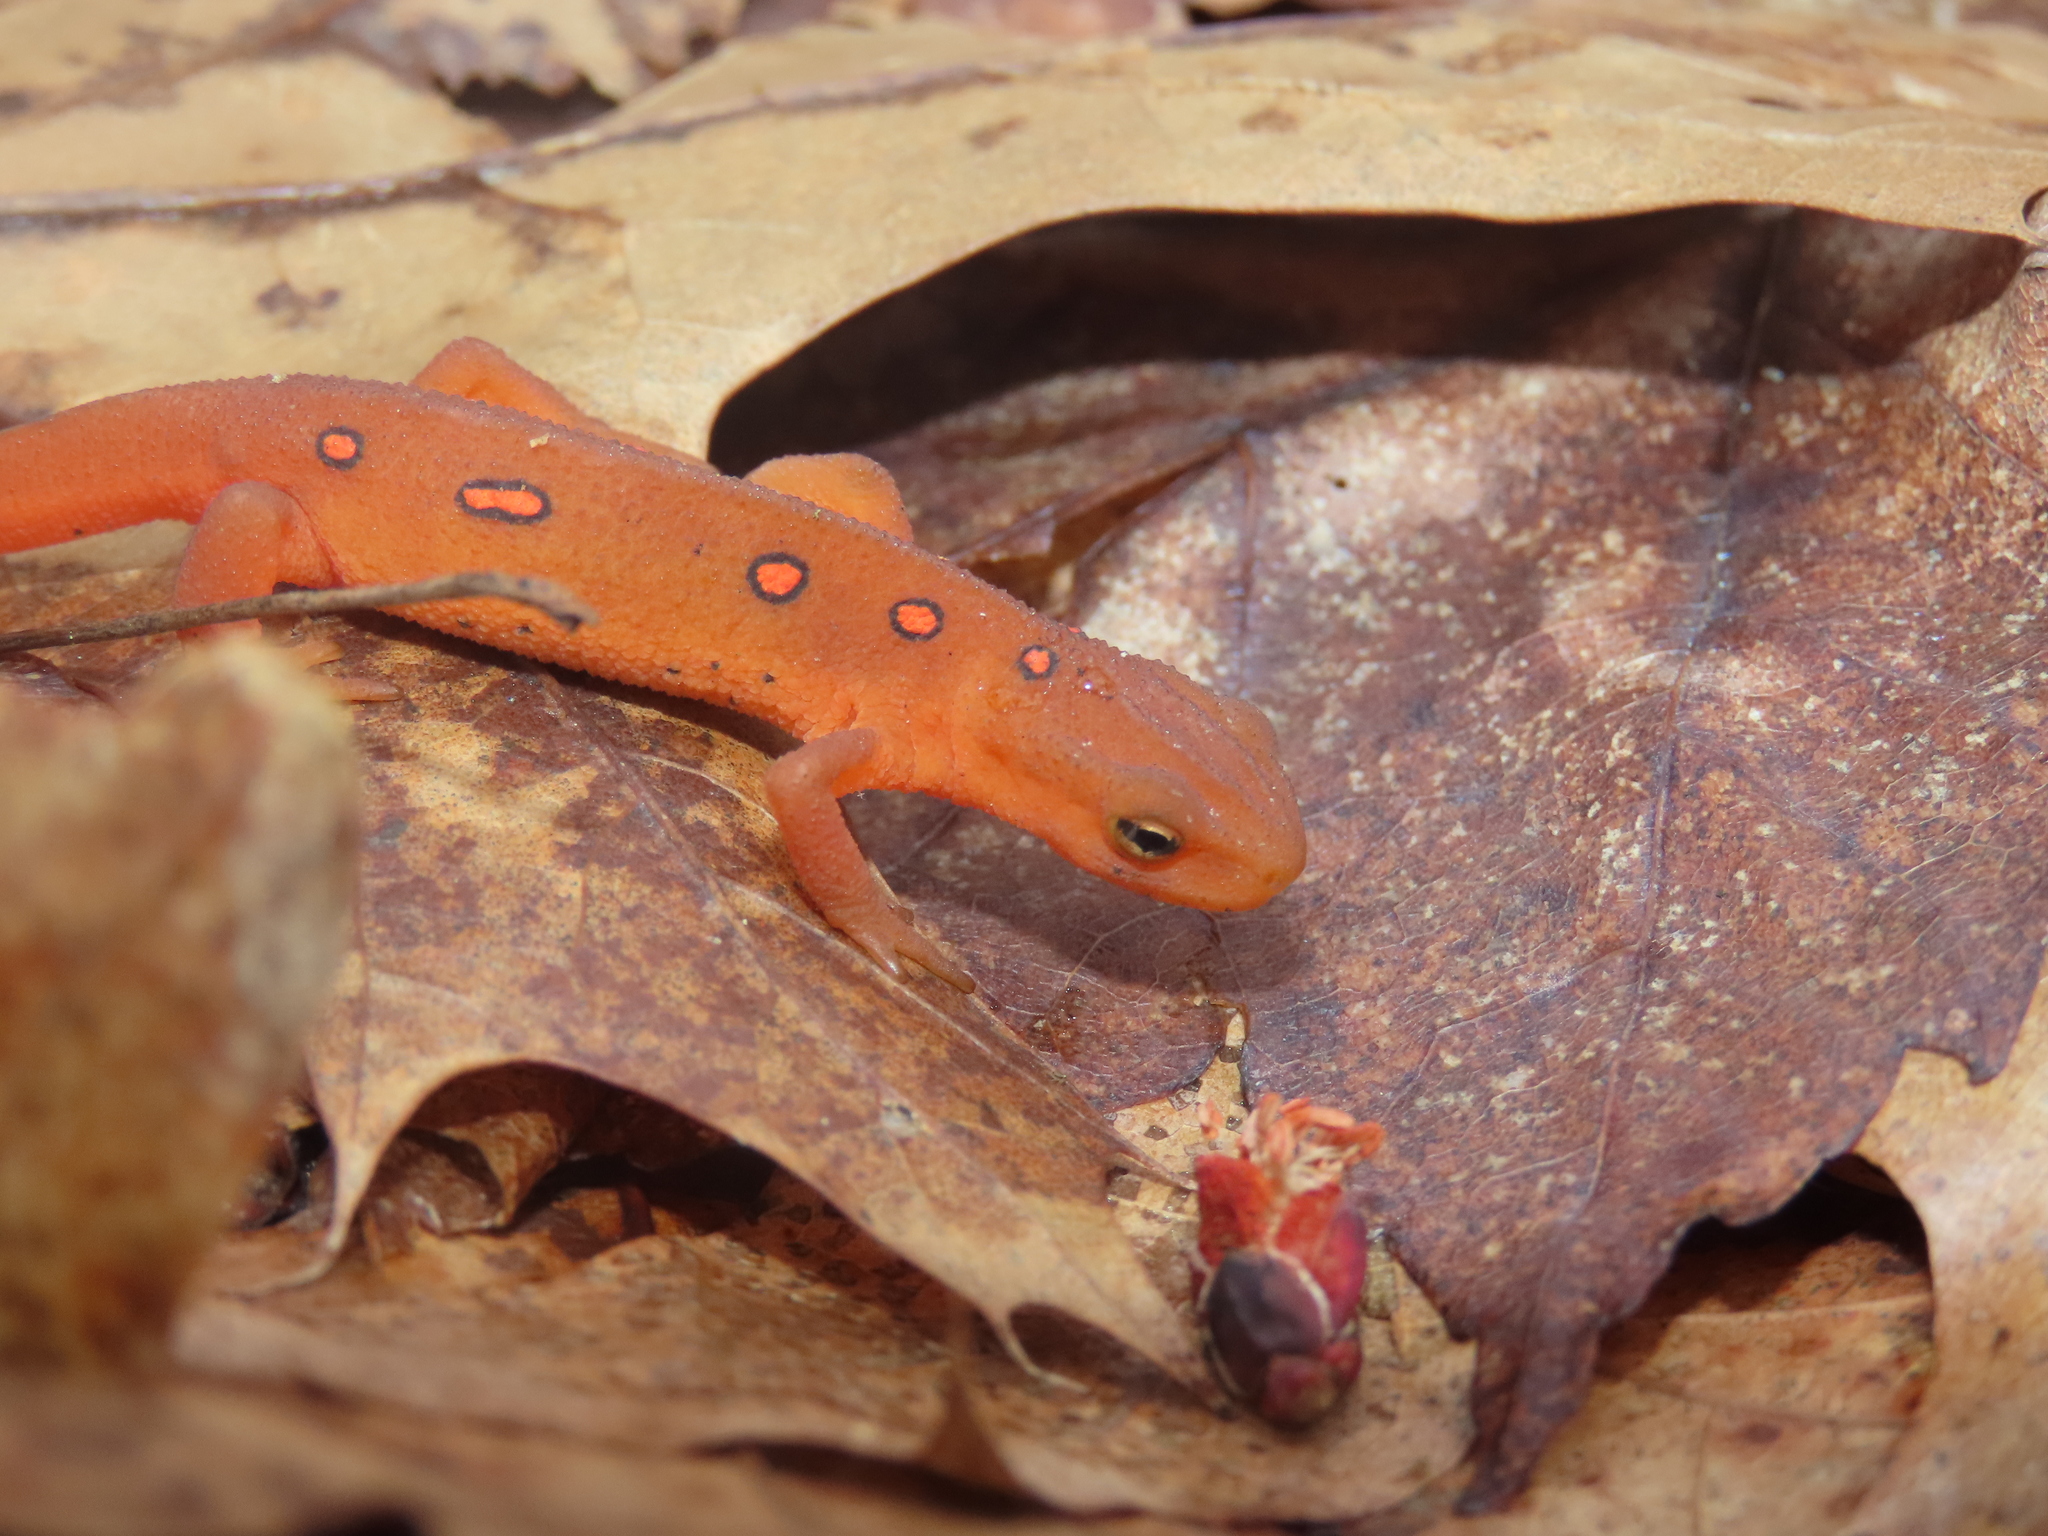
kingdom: Animalia
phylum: Chordata
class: Amphibia
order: Caudata
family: Salamandridae
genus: Notophthalmus
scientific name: Notophthalmus viridescens
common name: Eastern newt
